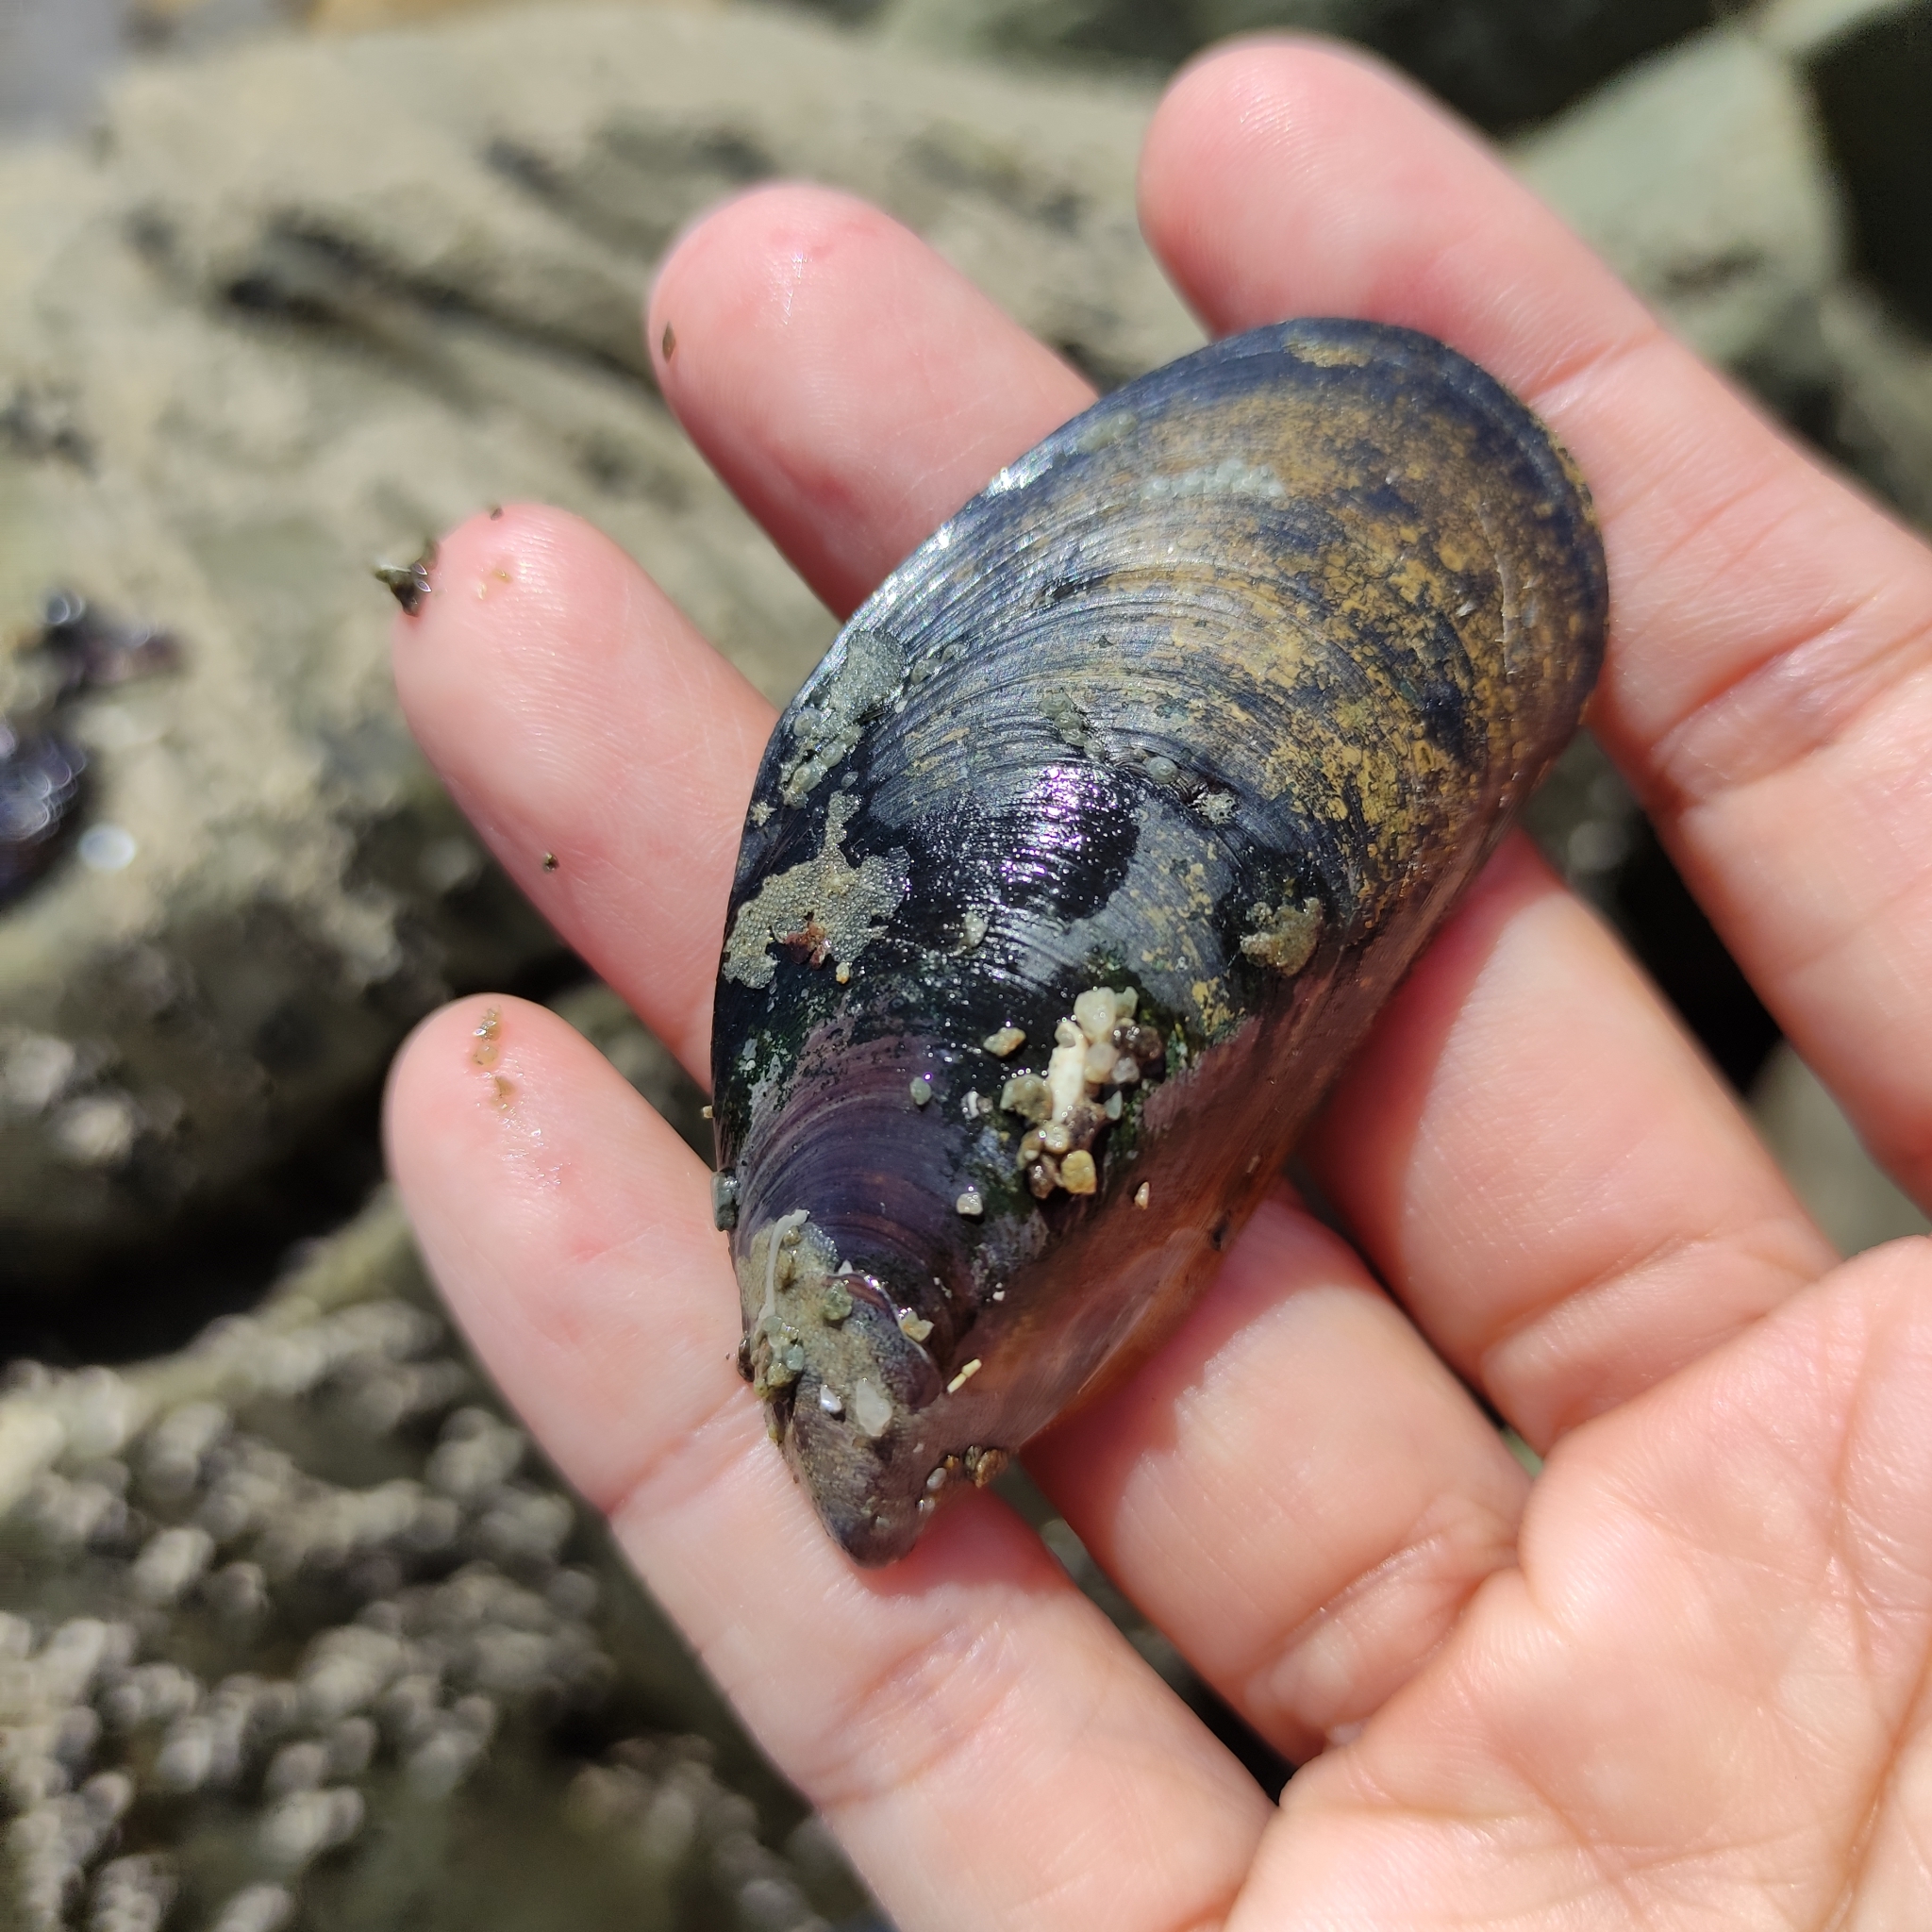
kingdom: Animalia
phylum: Mollusca
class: Bivalvia
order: Mytilida
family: Mytilidae
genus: Perna
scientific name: Perna canaliculus
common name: New zealand greenshelltm
